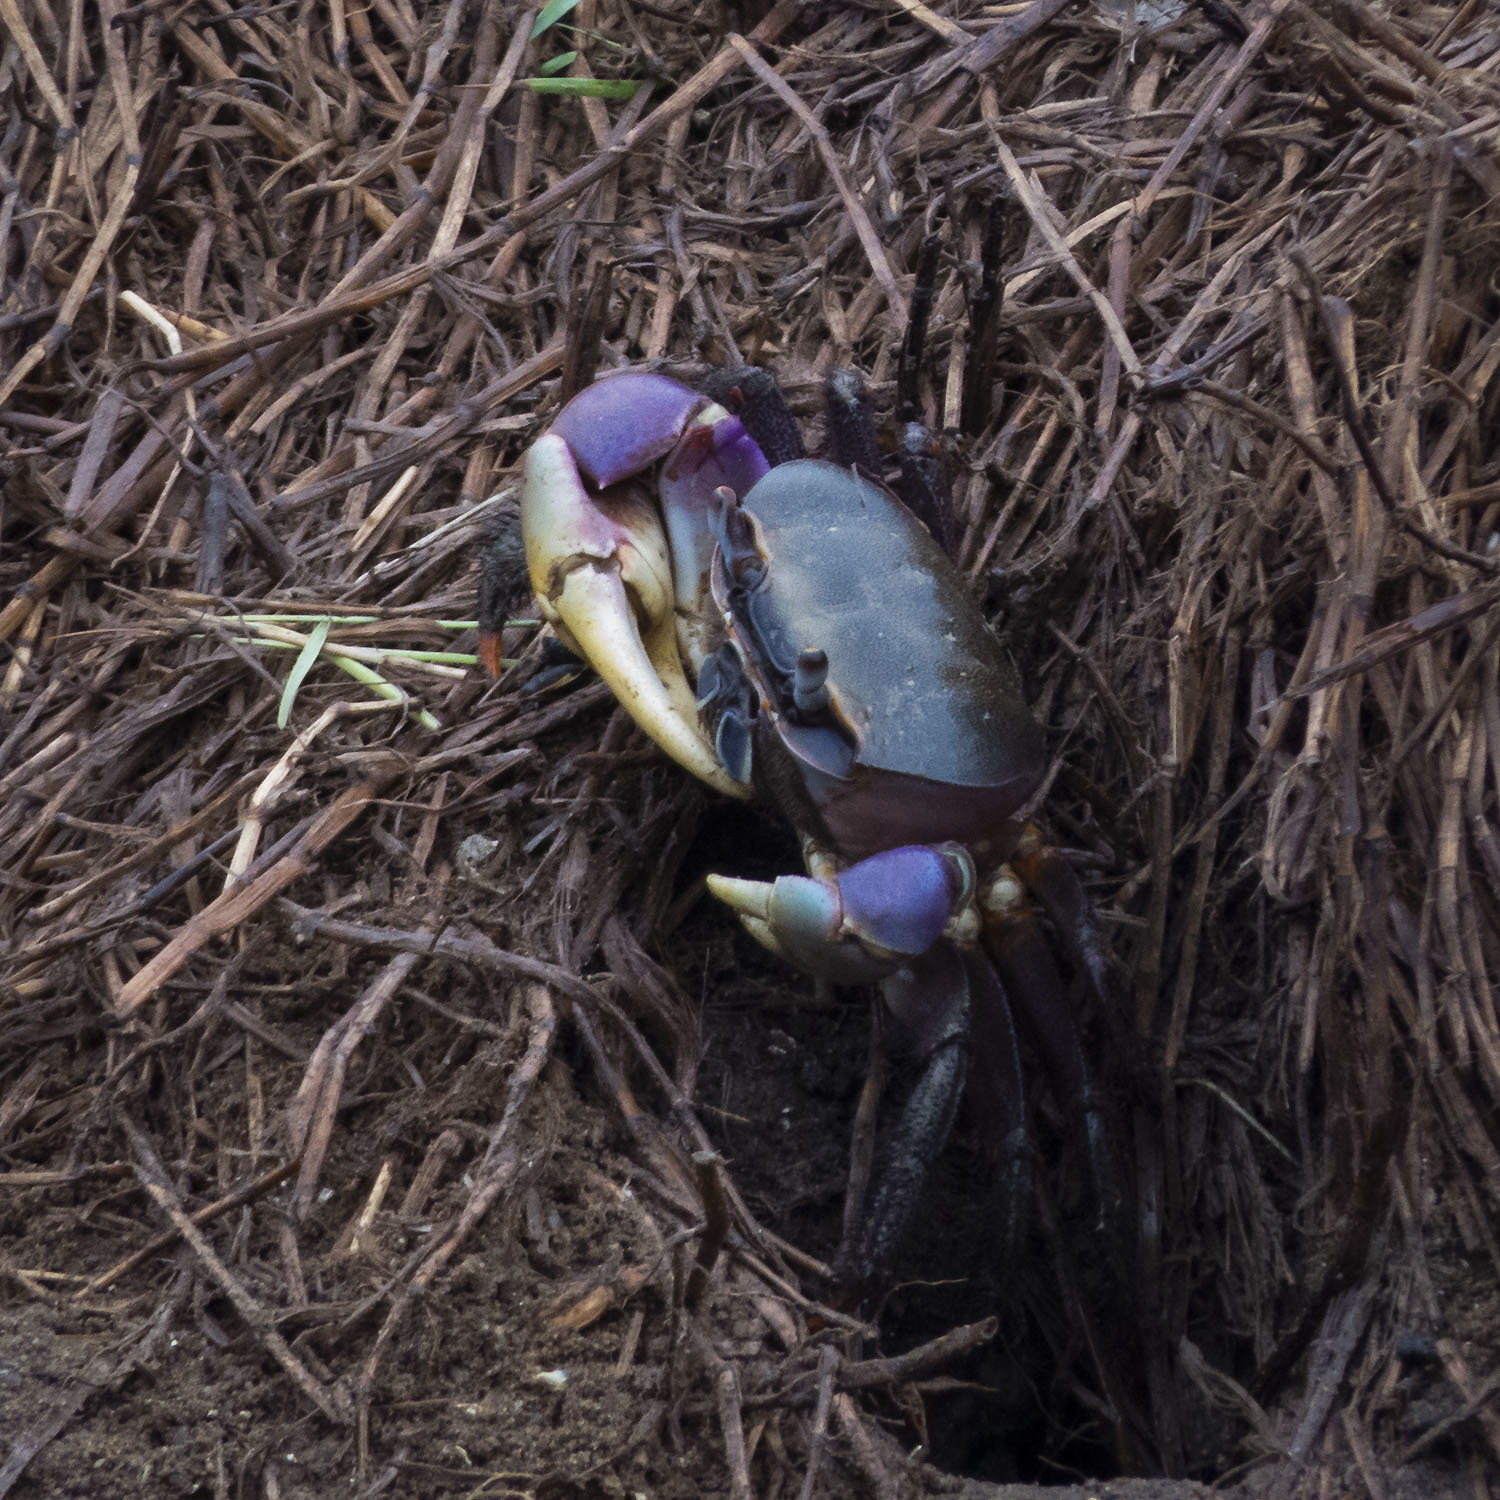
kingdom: Animalia
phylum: Arthropoda
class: Malacostraca
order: Decapoda
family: Gecarcinidae
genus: Cardisoma
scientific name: Cardisoma carnifex
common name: Brown land crab
